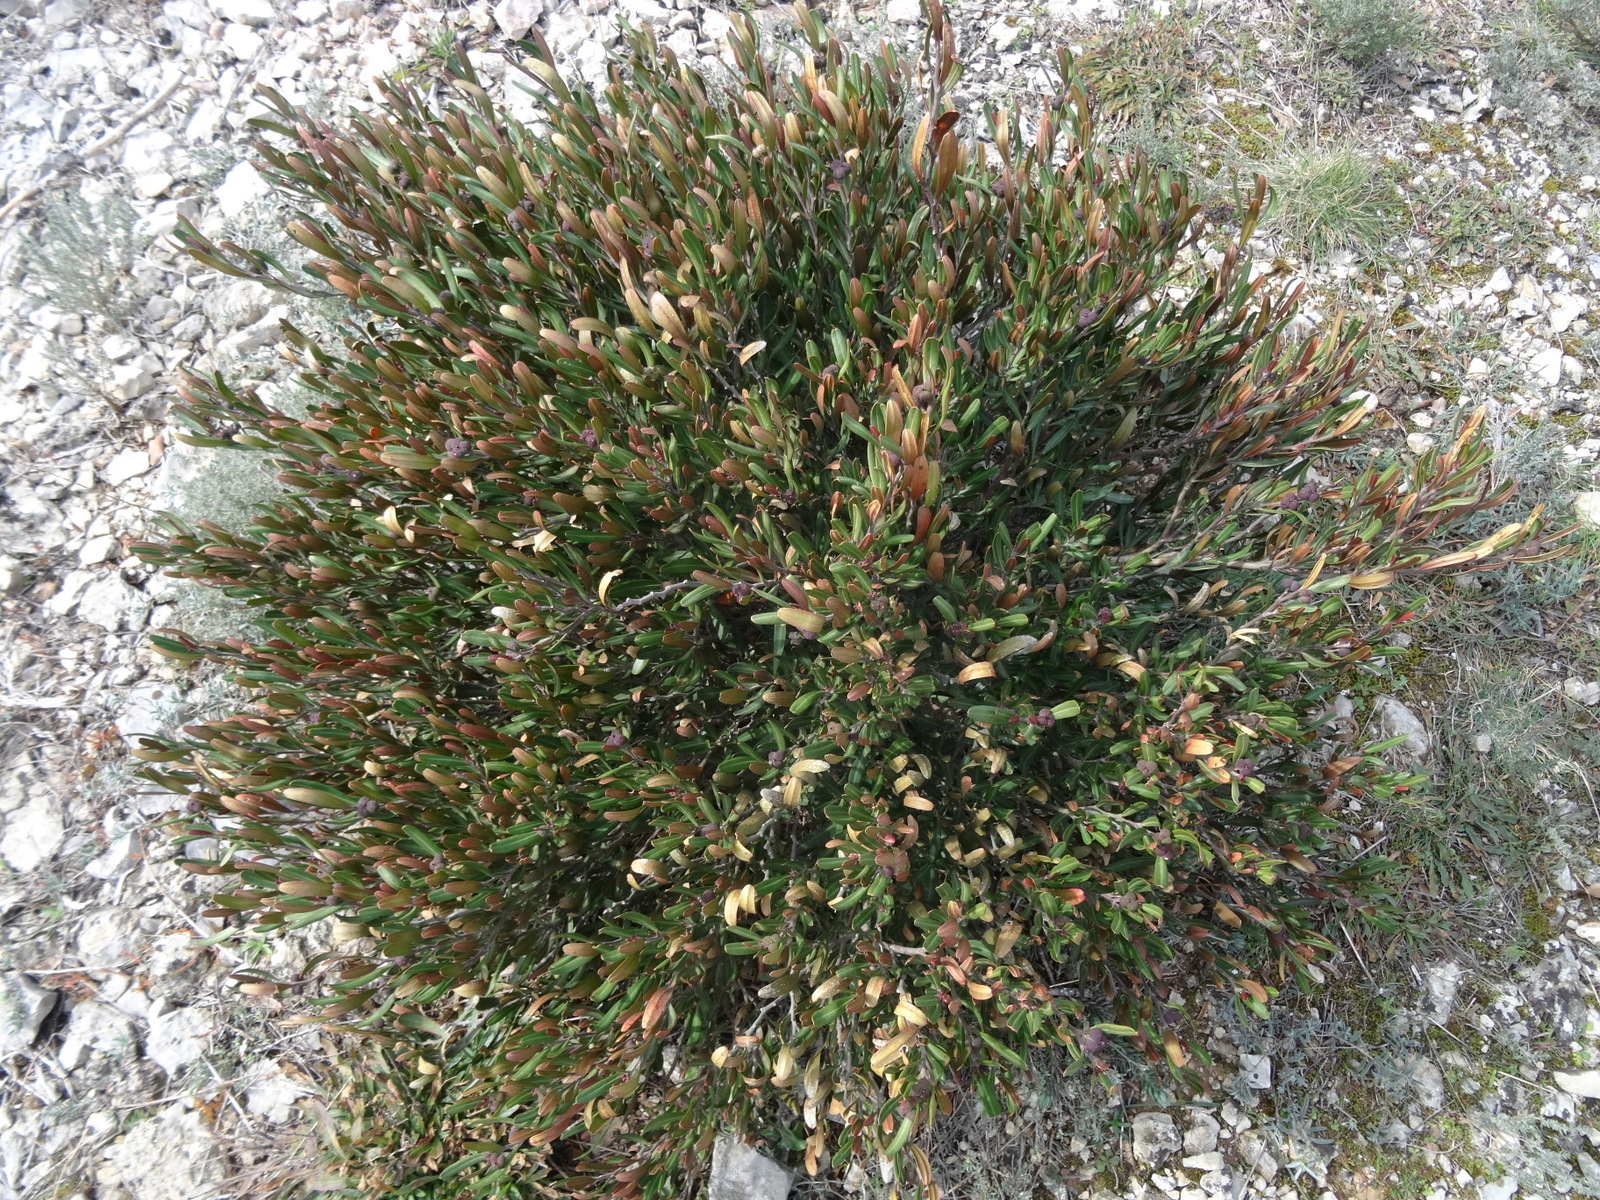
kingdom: Plantae
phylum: Tracheophyta
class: Magnoliopsida
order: Sapindales
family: Rutaceae
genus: Cneorum
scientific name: Cneorum tricoccon
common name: Spurge olive
